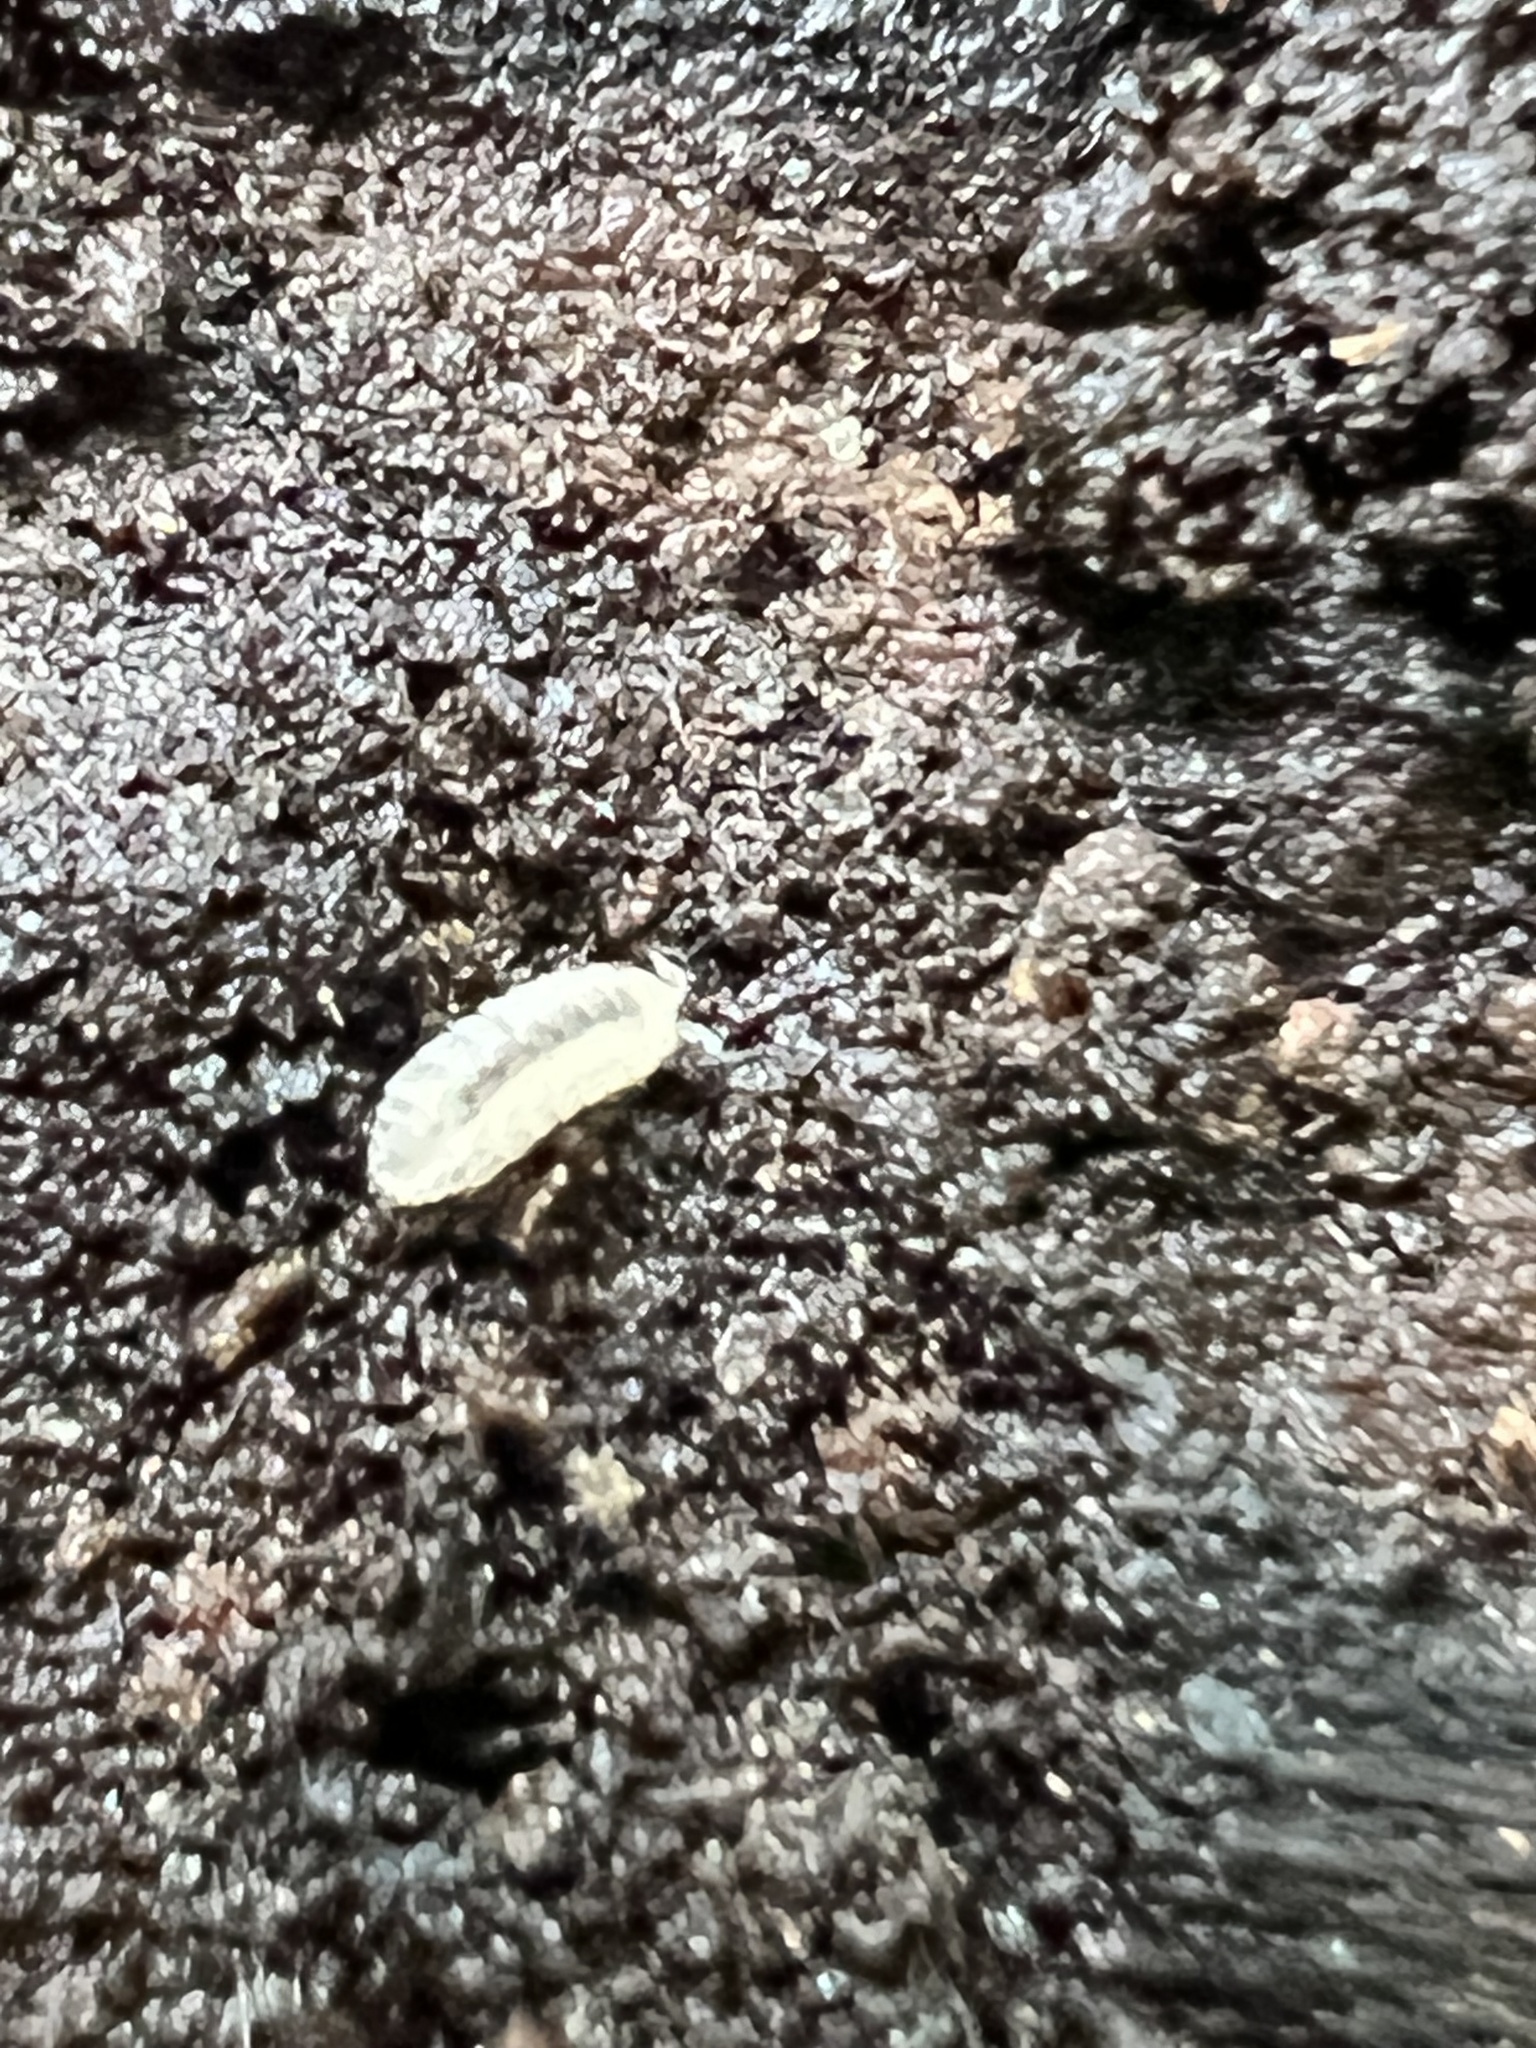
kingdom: Animalia
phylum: Arthropoda
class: Malacostraca
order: Isopoda
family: Trichoniscidae
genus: Haplophthalmus
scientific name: Haplophthalmus danicus
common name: Pillbug
